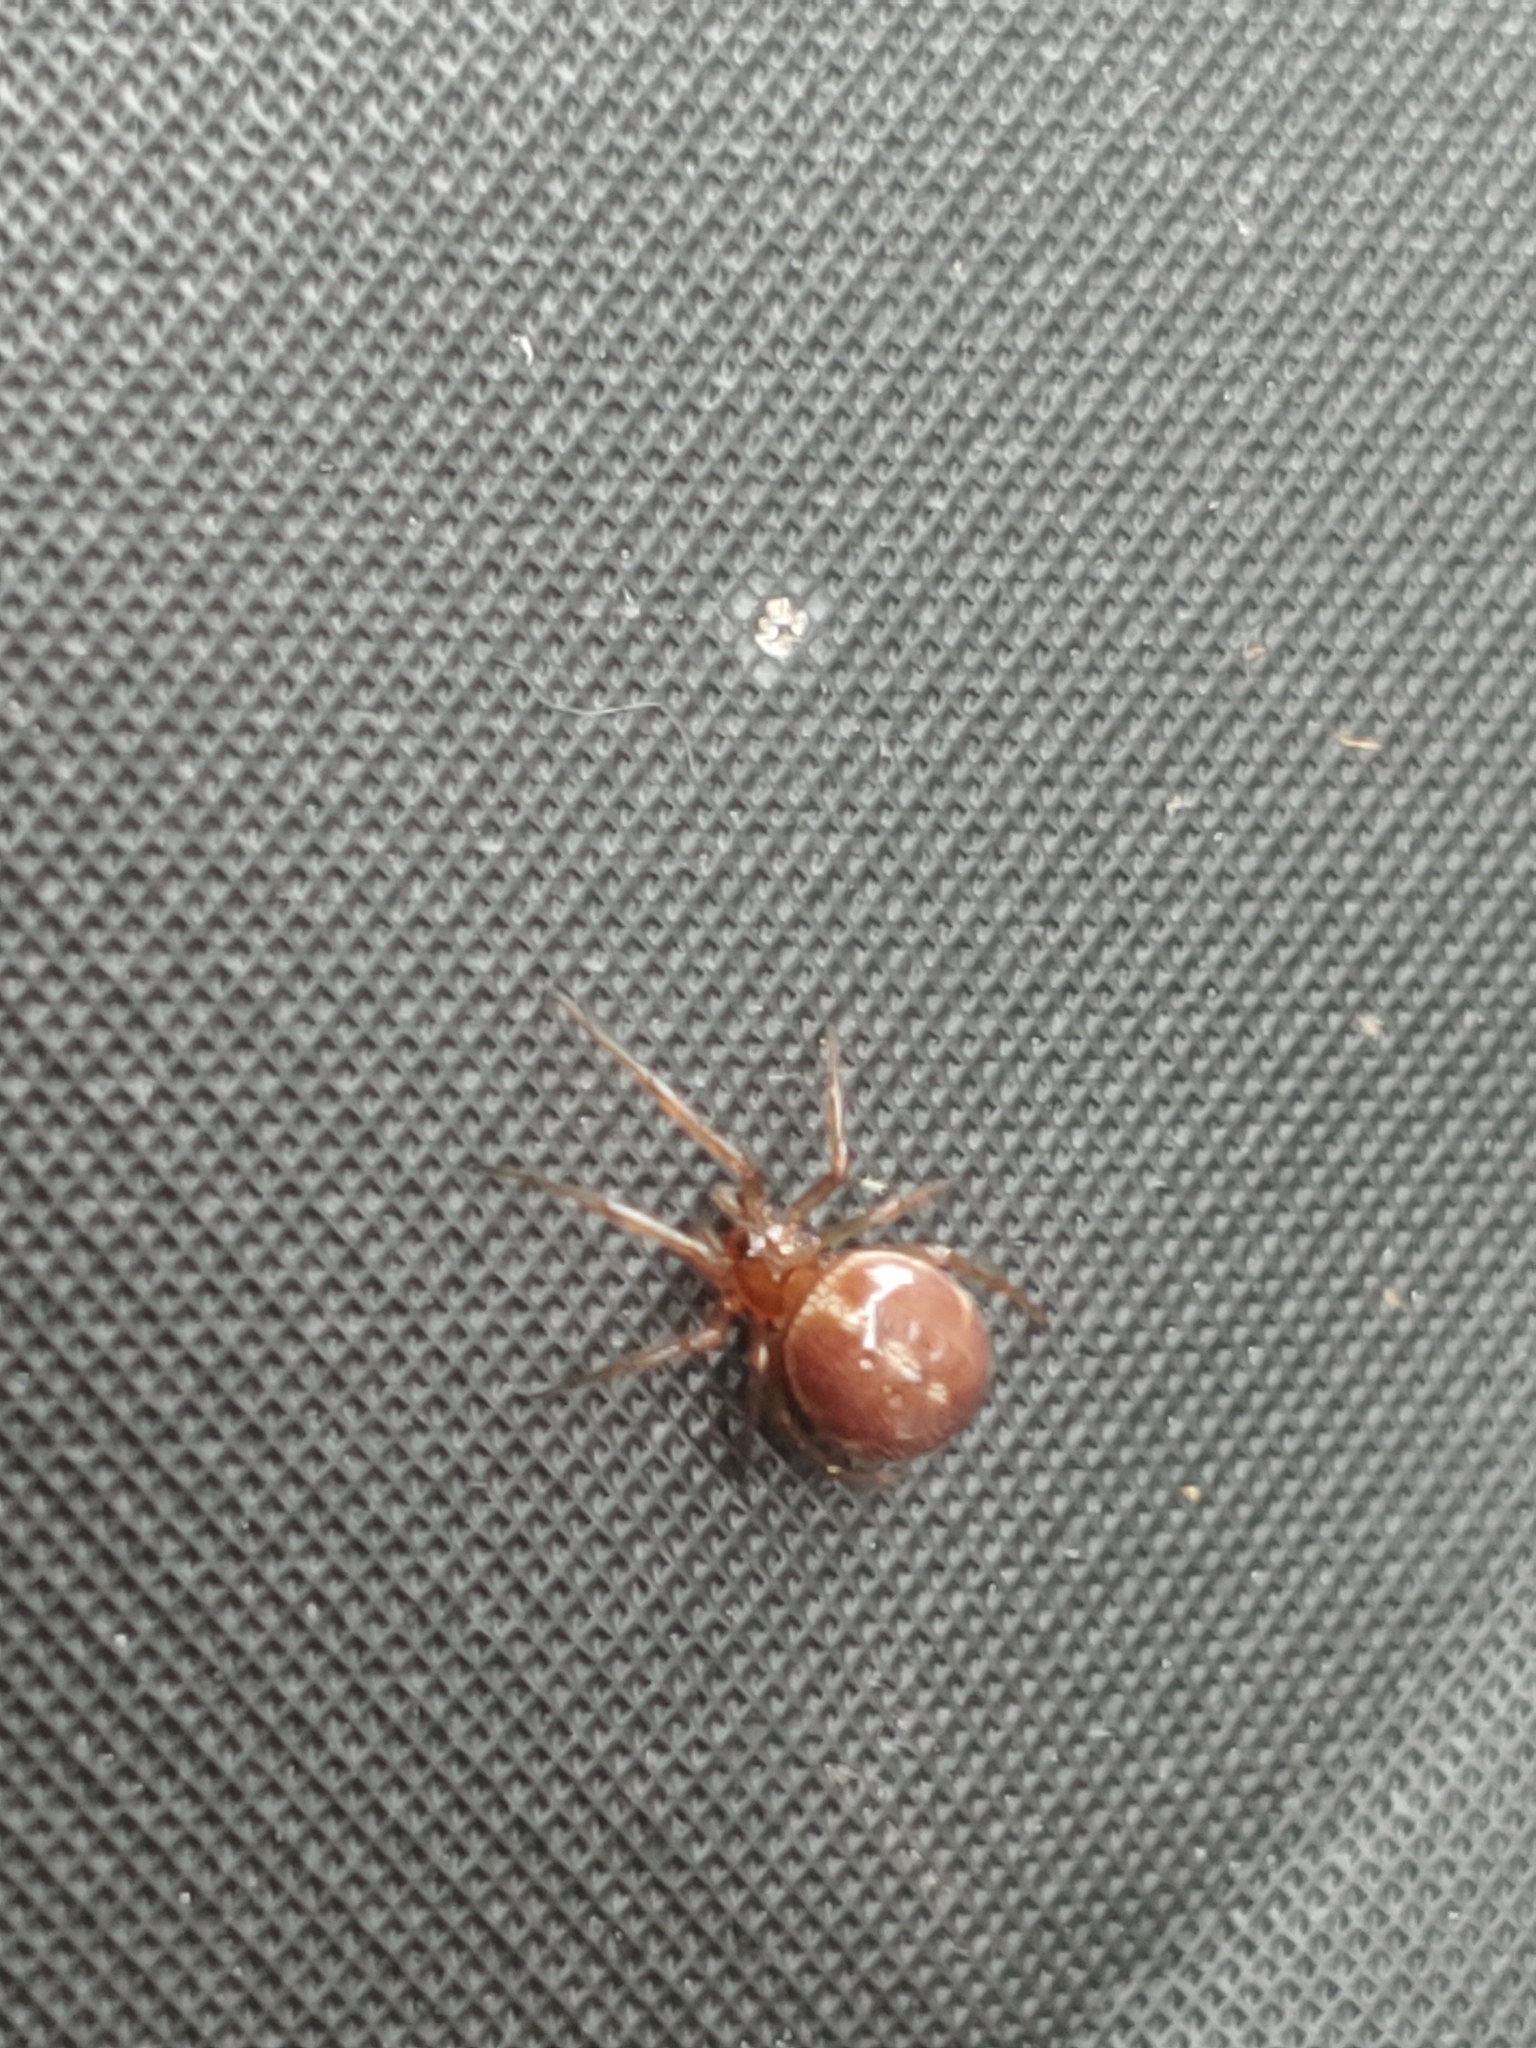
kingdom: Animalia
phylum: Arthropoda
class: Arachnida
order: Araneae
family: Theridiidae
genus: Steatoda
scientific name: Steatoda bipunctata
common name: False widow
